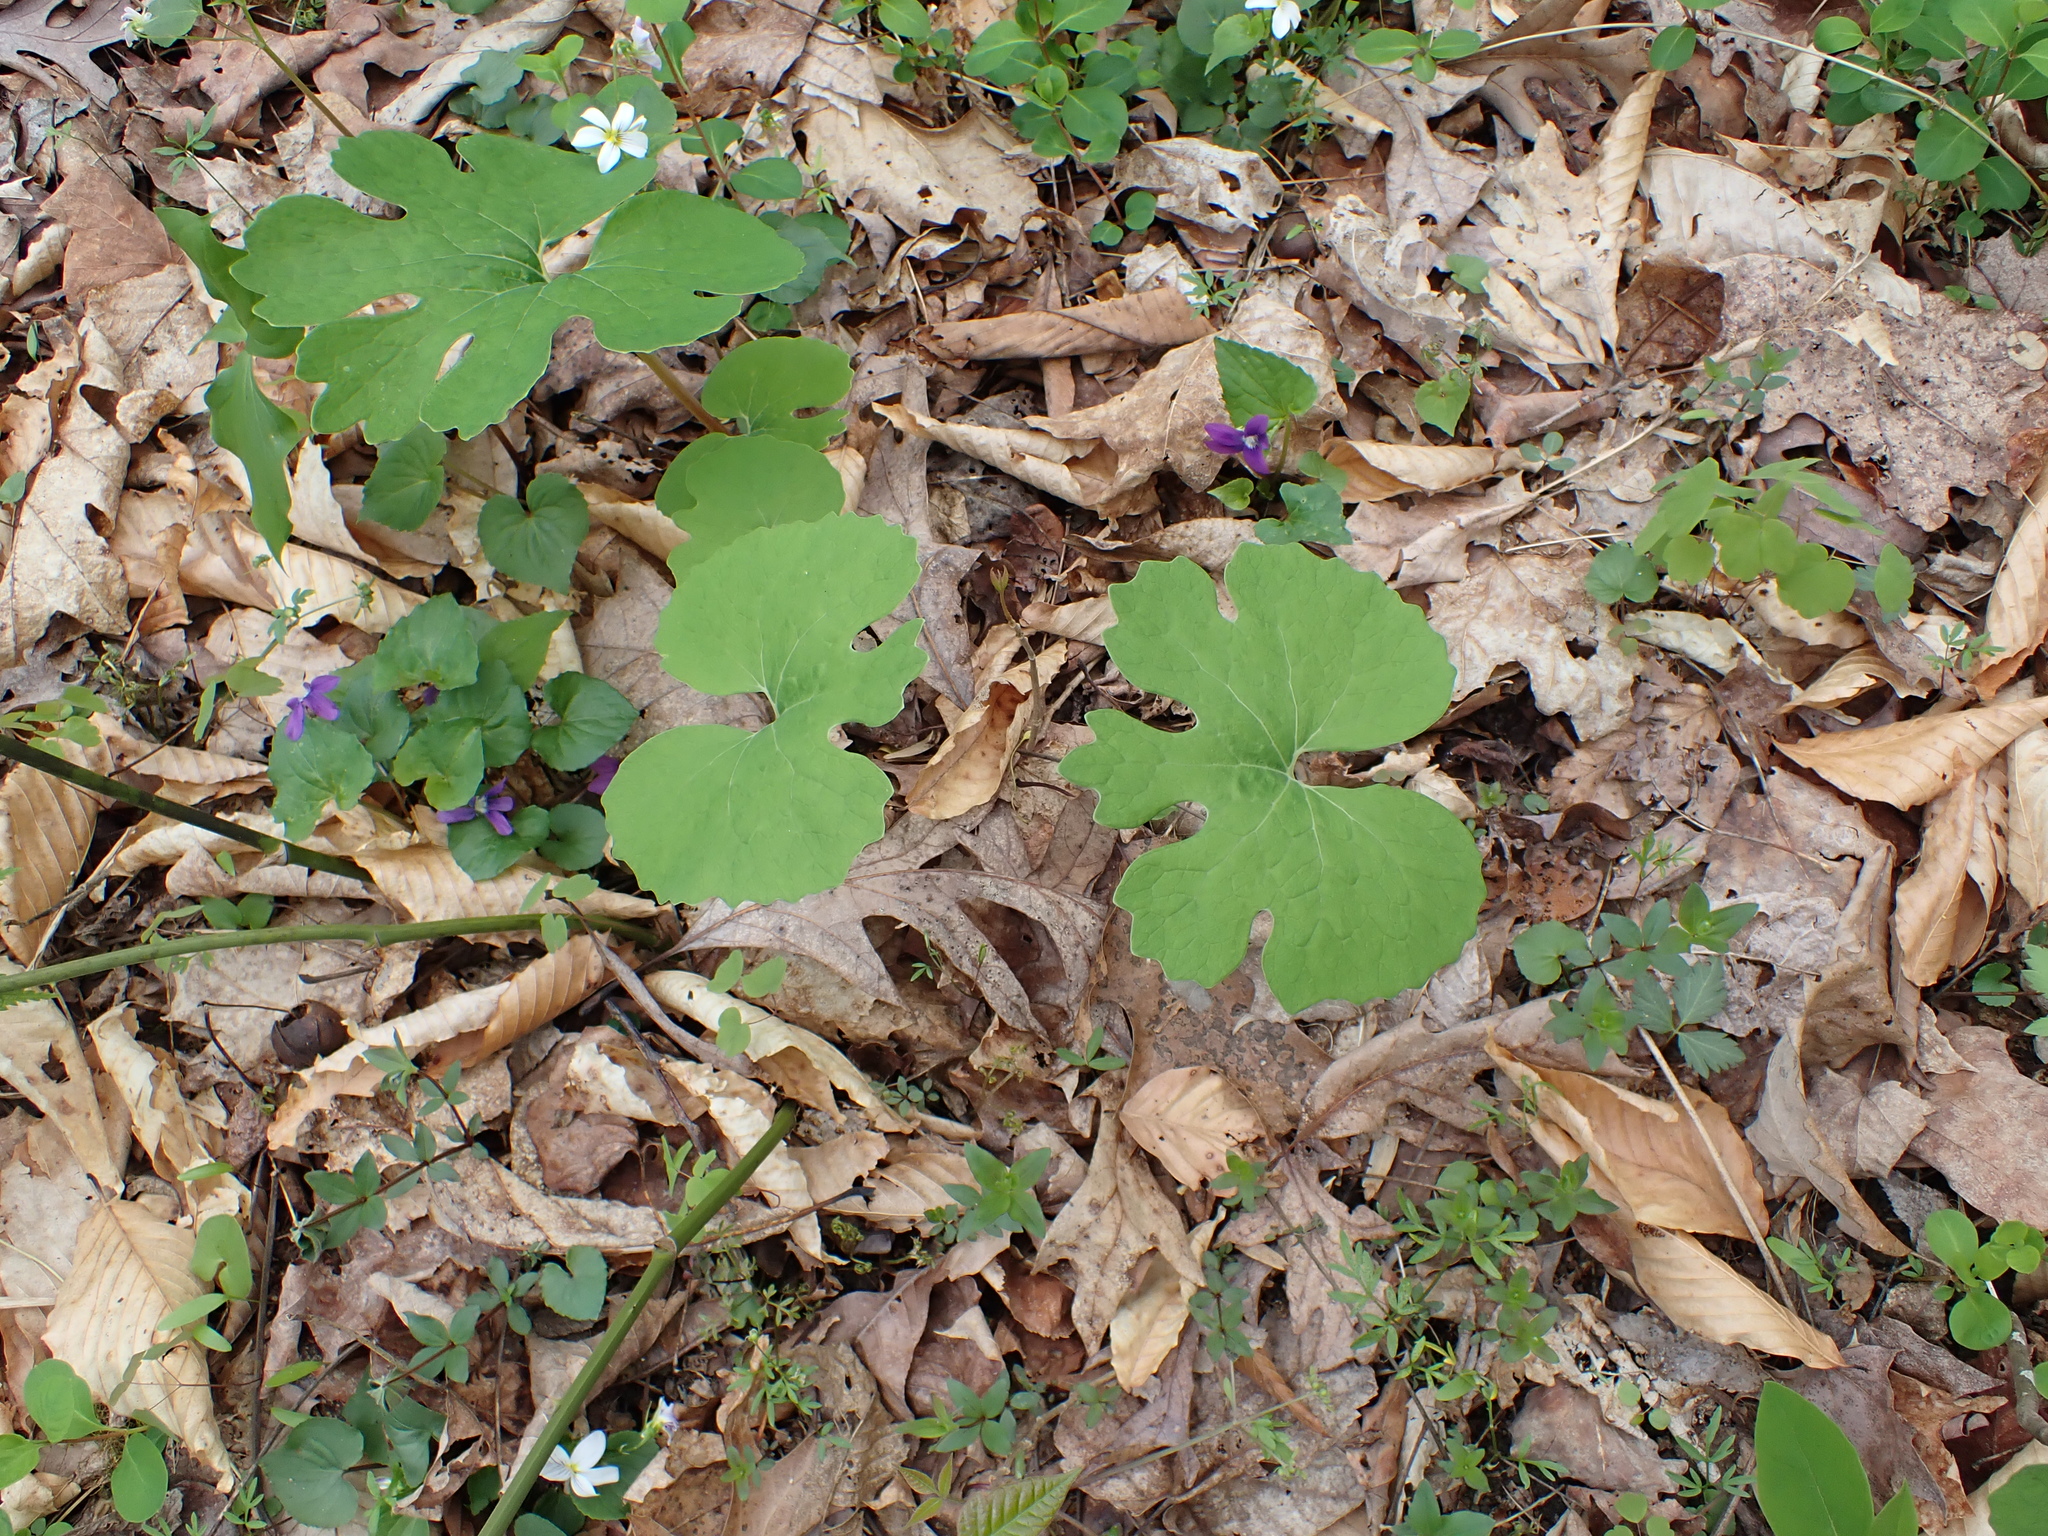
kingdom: Plantae
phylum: Tracheophyta
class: Magnoliopsida
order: Ranunculales
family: Papaveraceae
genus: Sanguinaria
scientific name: Sanguinaria canadensis
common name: Bloodroot
